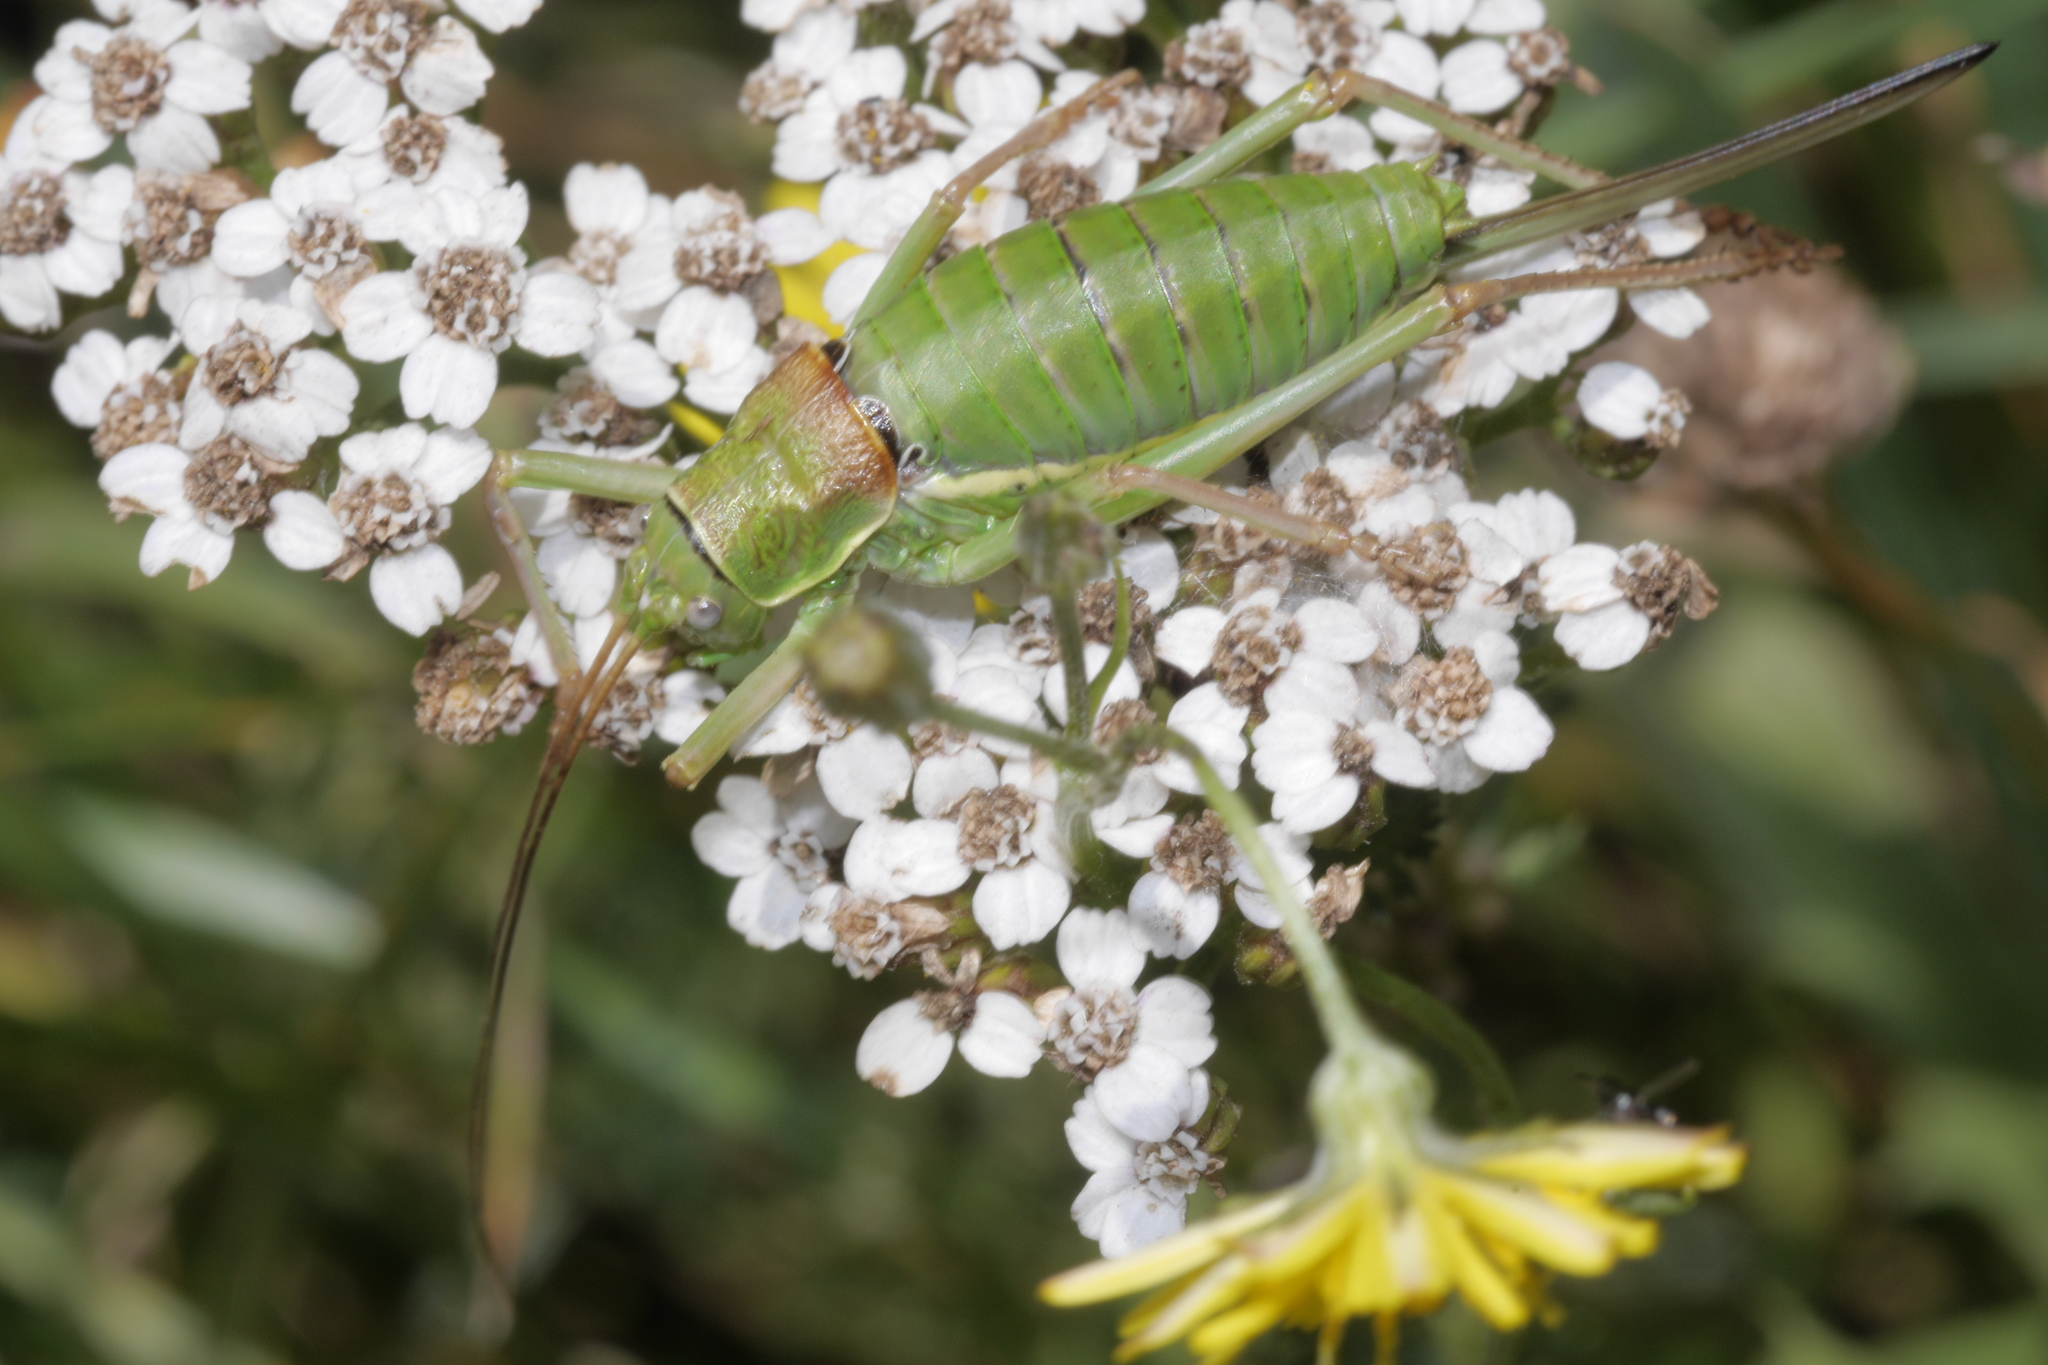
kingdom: Animalia
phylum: Arthropoda
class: Insecta
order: Orthoptera
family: Tettigoniidae
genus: Ephippiger
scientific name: Ephippiger diurnus
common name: Western saddle bush-cricket
